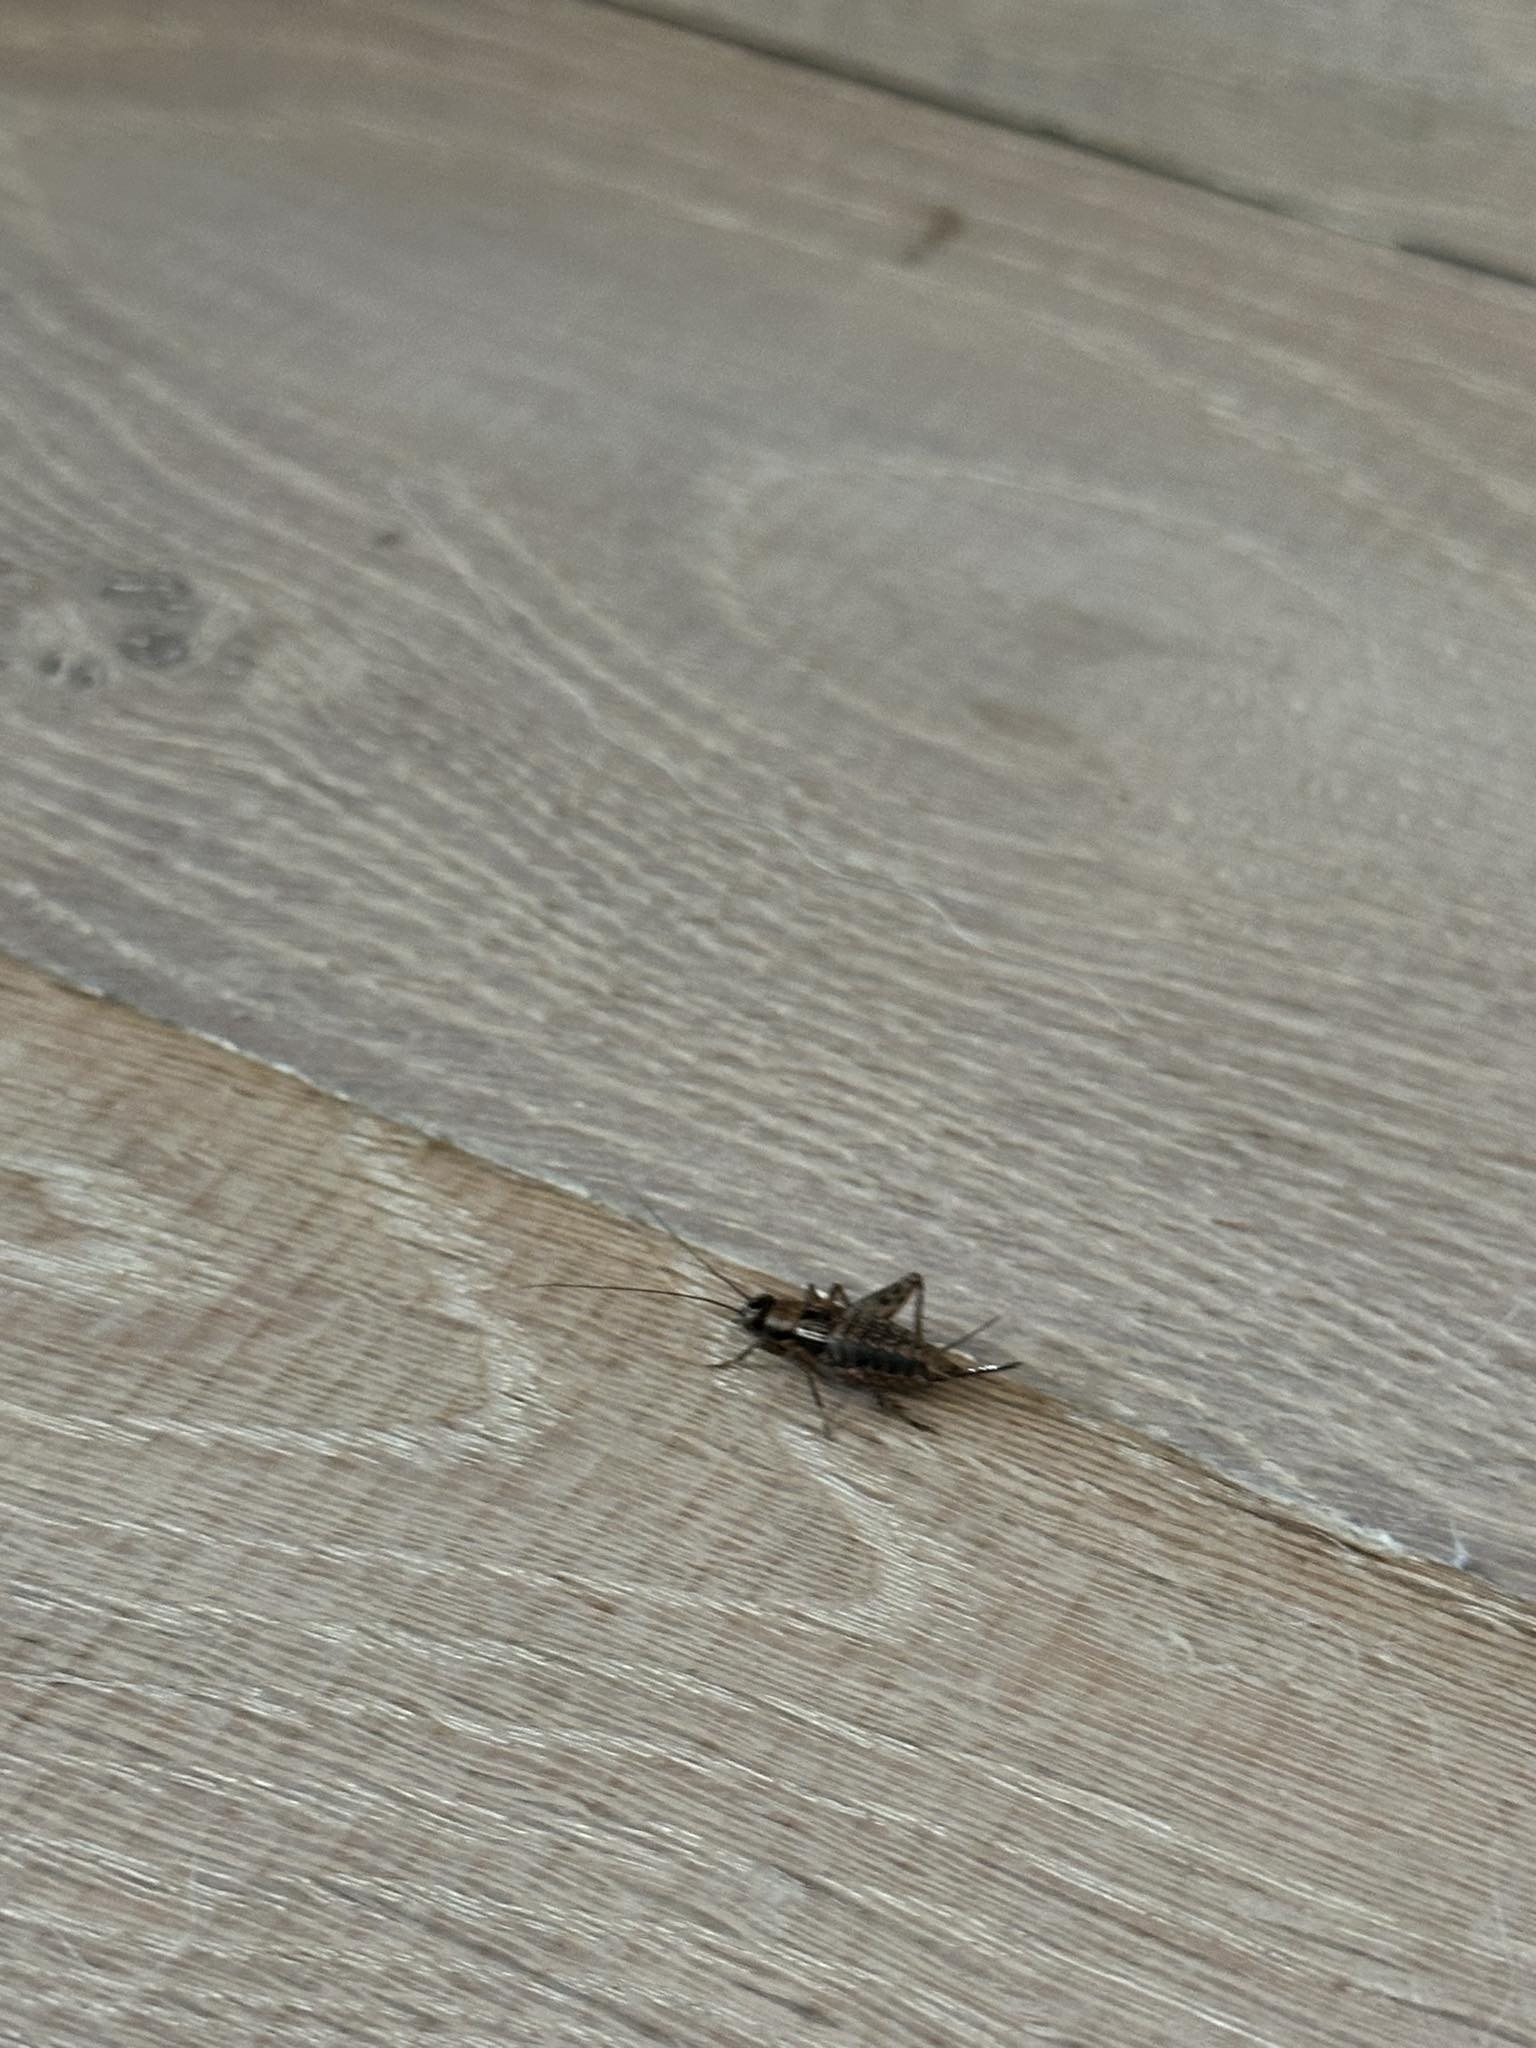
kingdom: Animalia
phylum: Arthropoda
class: Insecta
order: Orthoptera
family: Trigonidiidae
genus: Nemobius
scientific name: Nemobius sylvestris
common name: Wood-cricket
